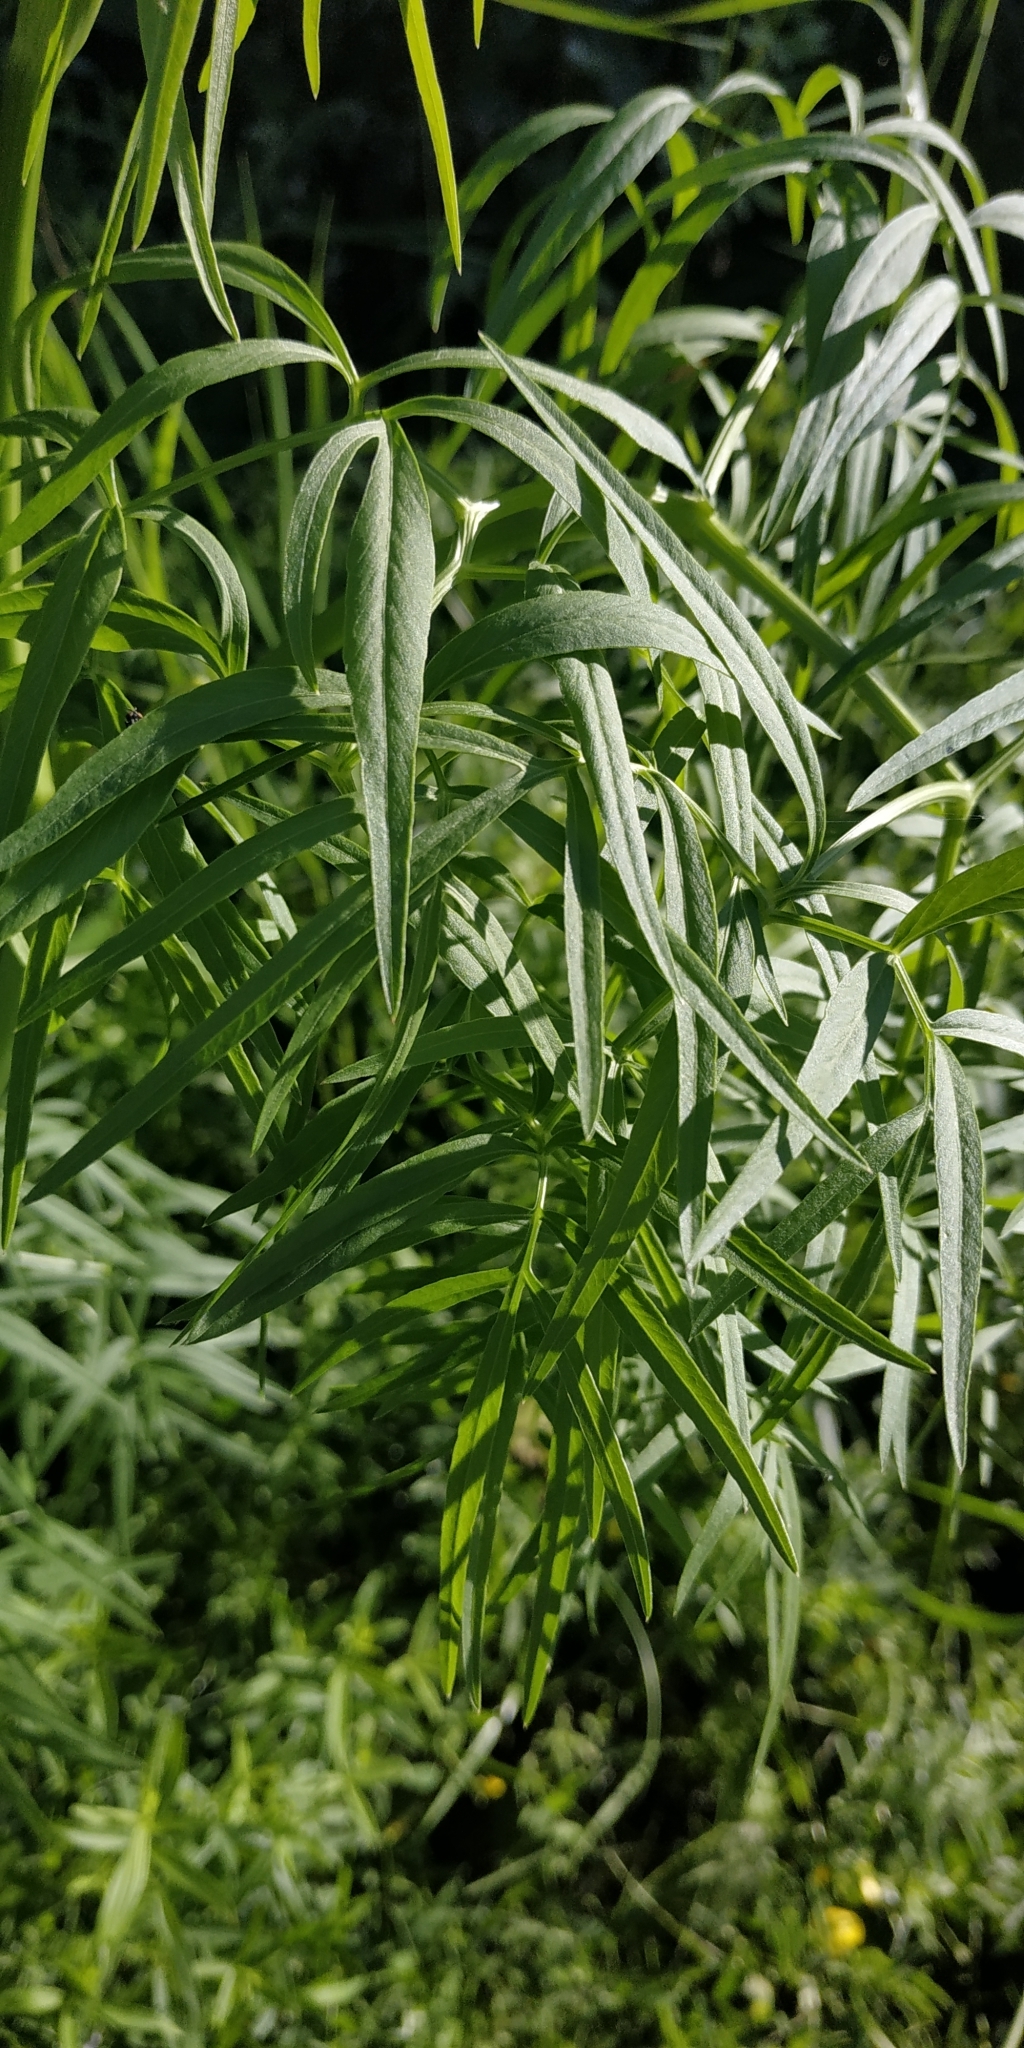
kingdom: Plantae
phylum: Tracheophyta
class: Magnoliopsida
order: Apiales
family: Apiaceae
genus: Cenolophium
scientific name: Cenolophium fischeri
